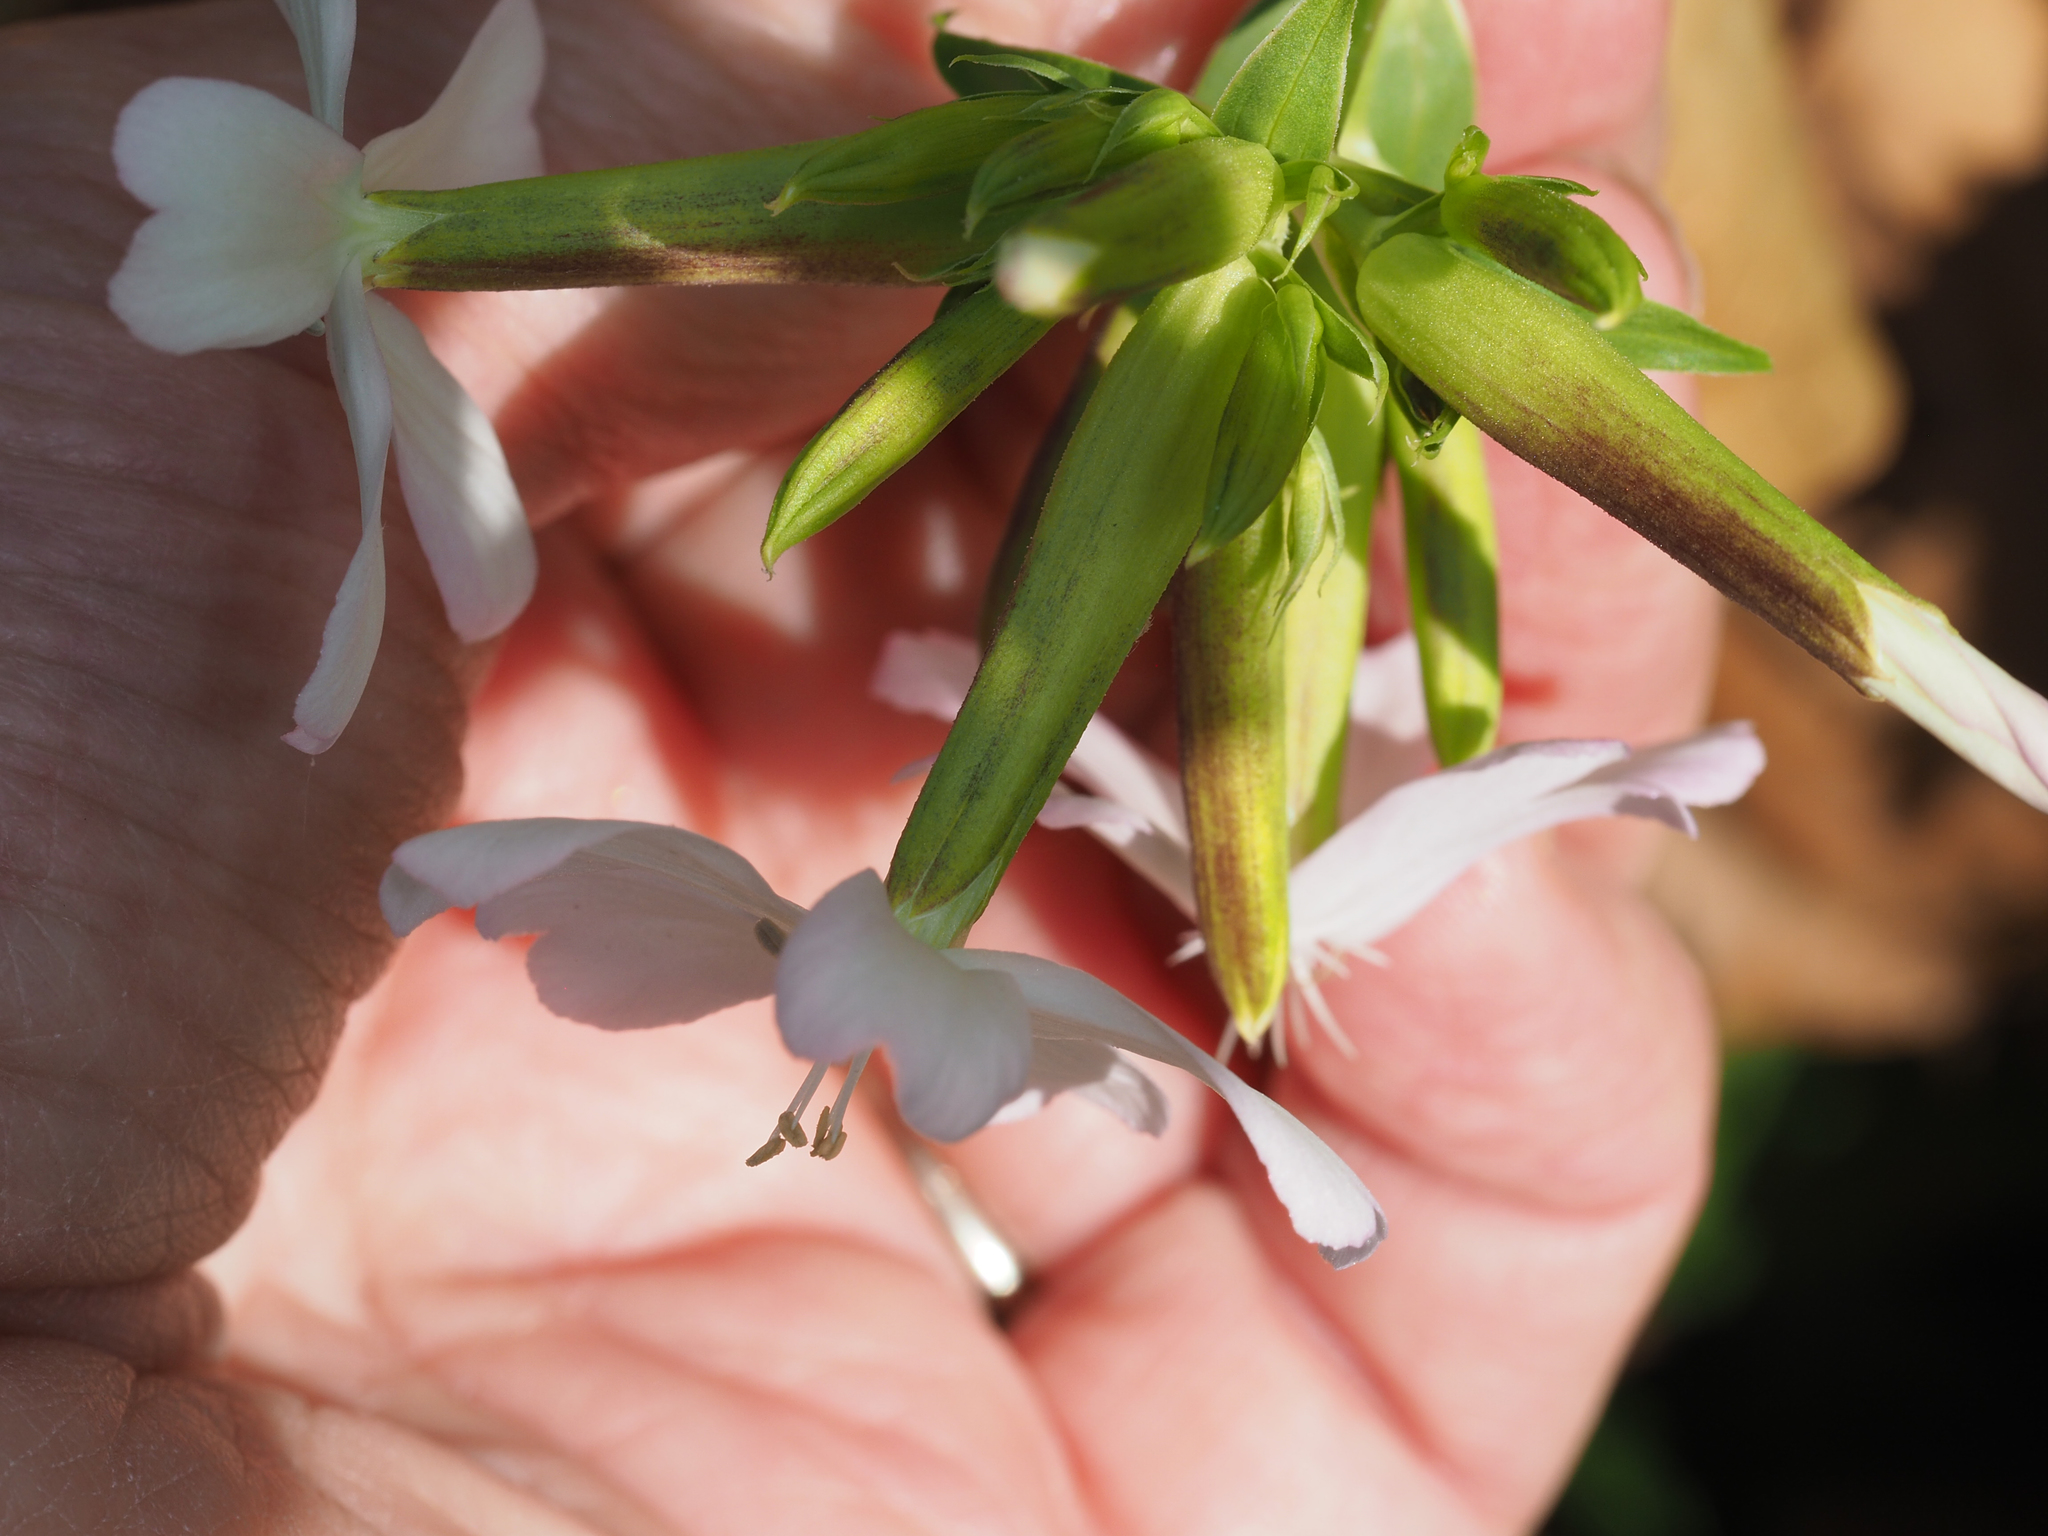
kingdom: Plantae
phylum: Tracheophyta
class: Magnoliopsida
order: Caryophyllales
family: Caryophyllaceae
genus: Saponaria
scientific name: Saponaria officinalis
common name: Soapwort
